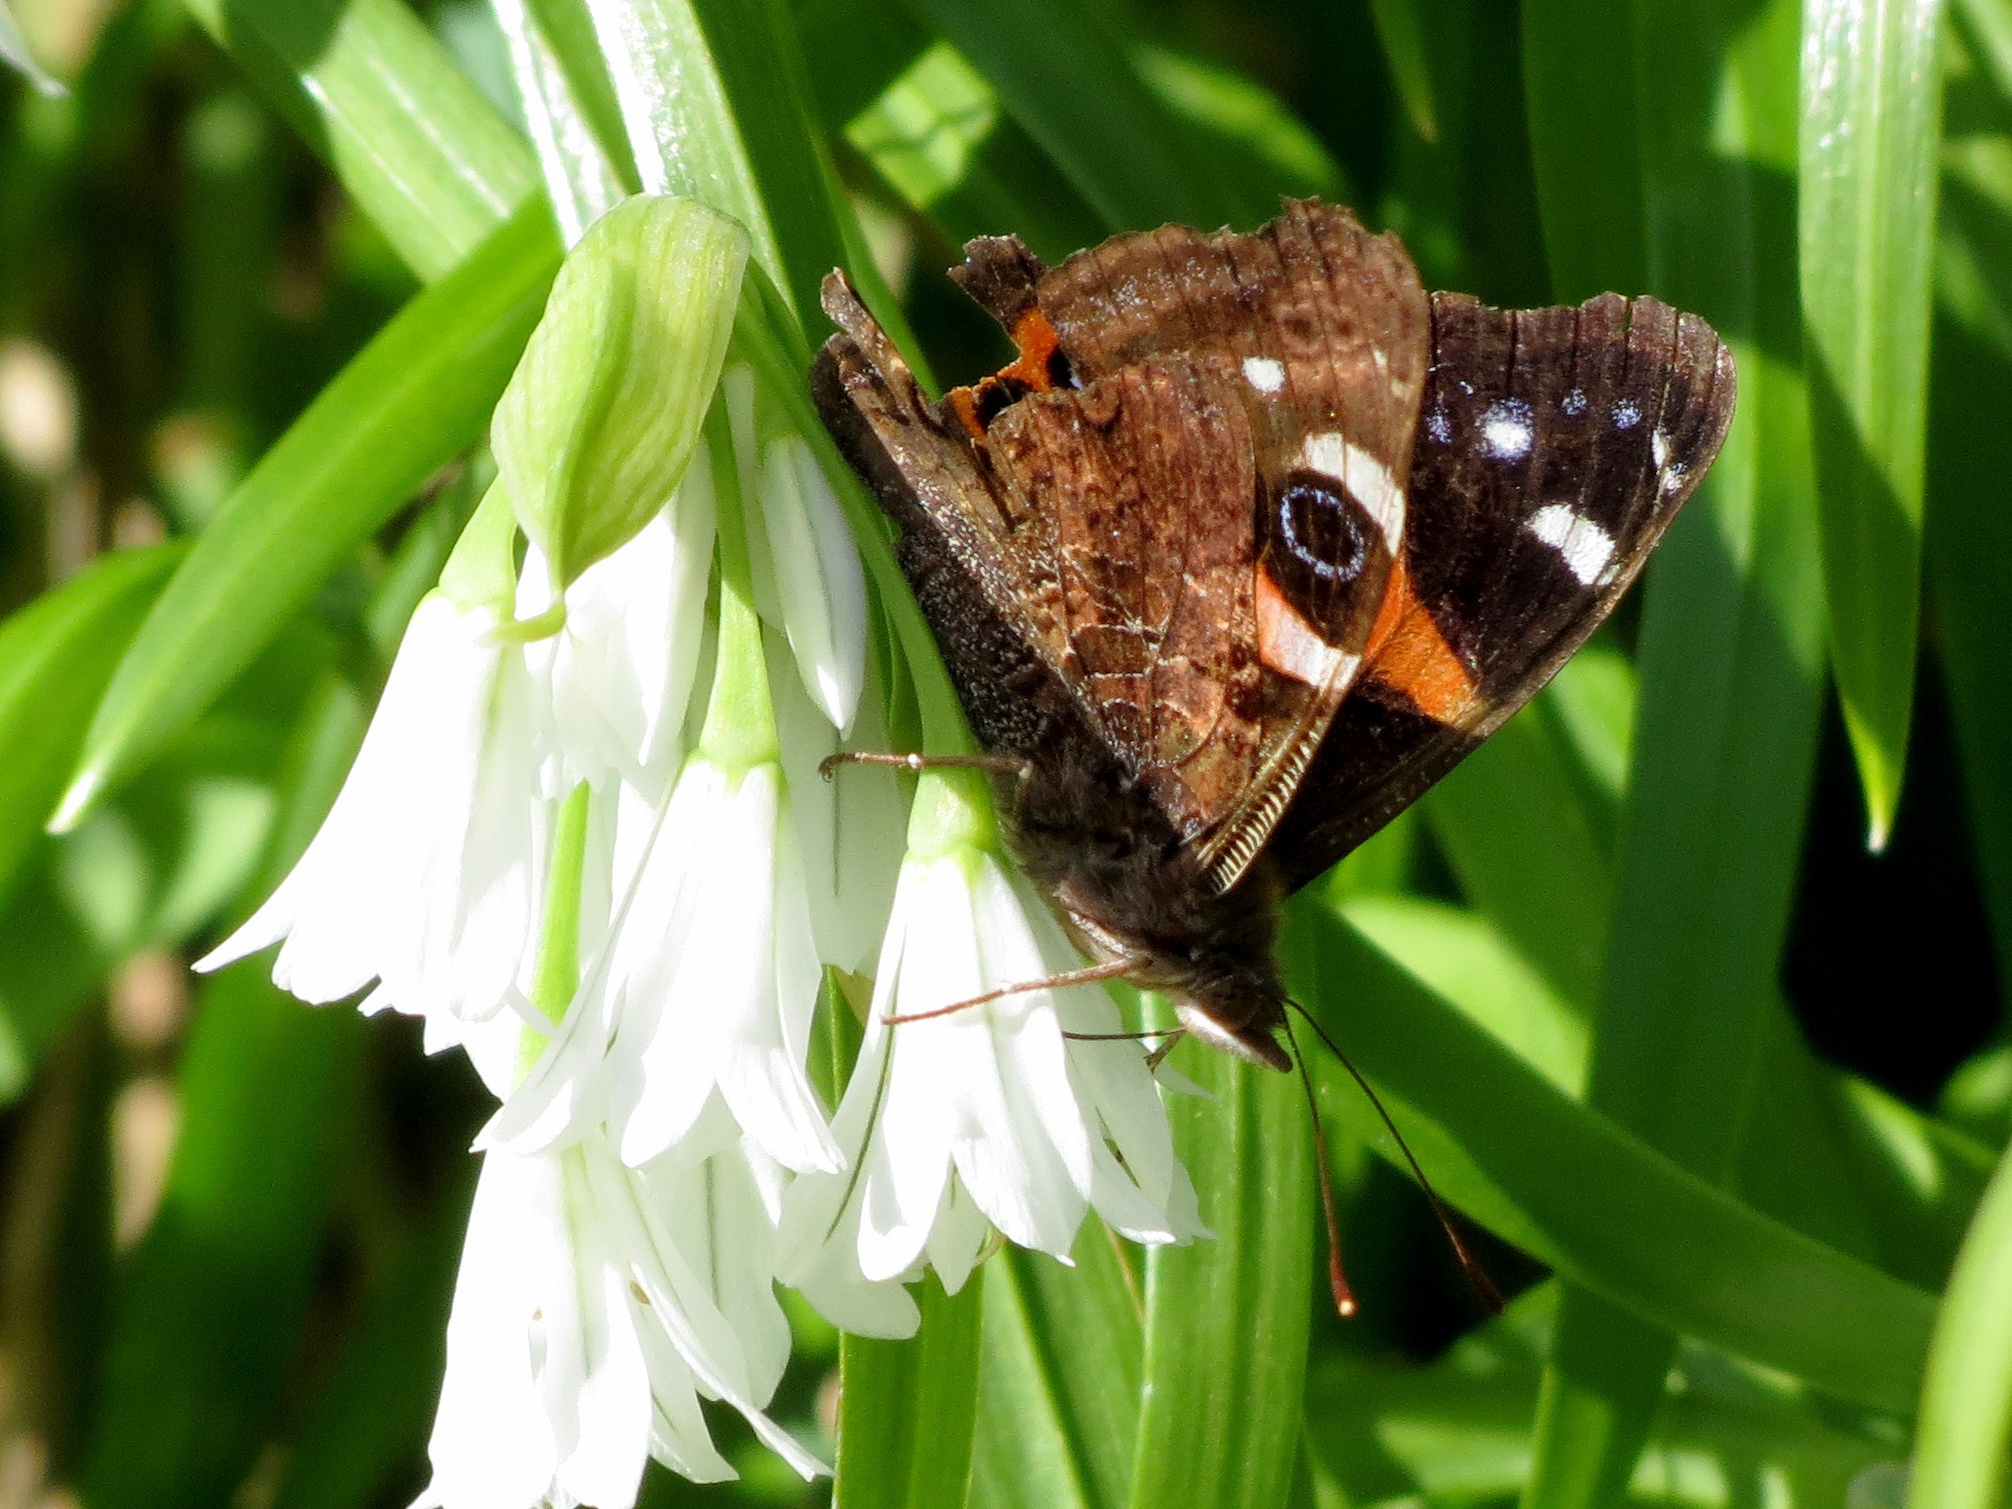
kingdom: Animalia
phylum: Arthropoda
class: Insecta
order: Lepidoptera
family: Nymphalidae
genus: Vanessa
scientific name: Vanessa gonerilla
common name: New zealand red admiral
